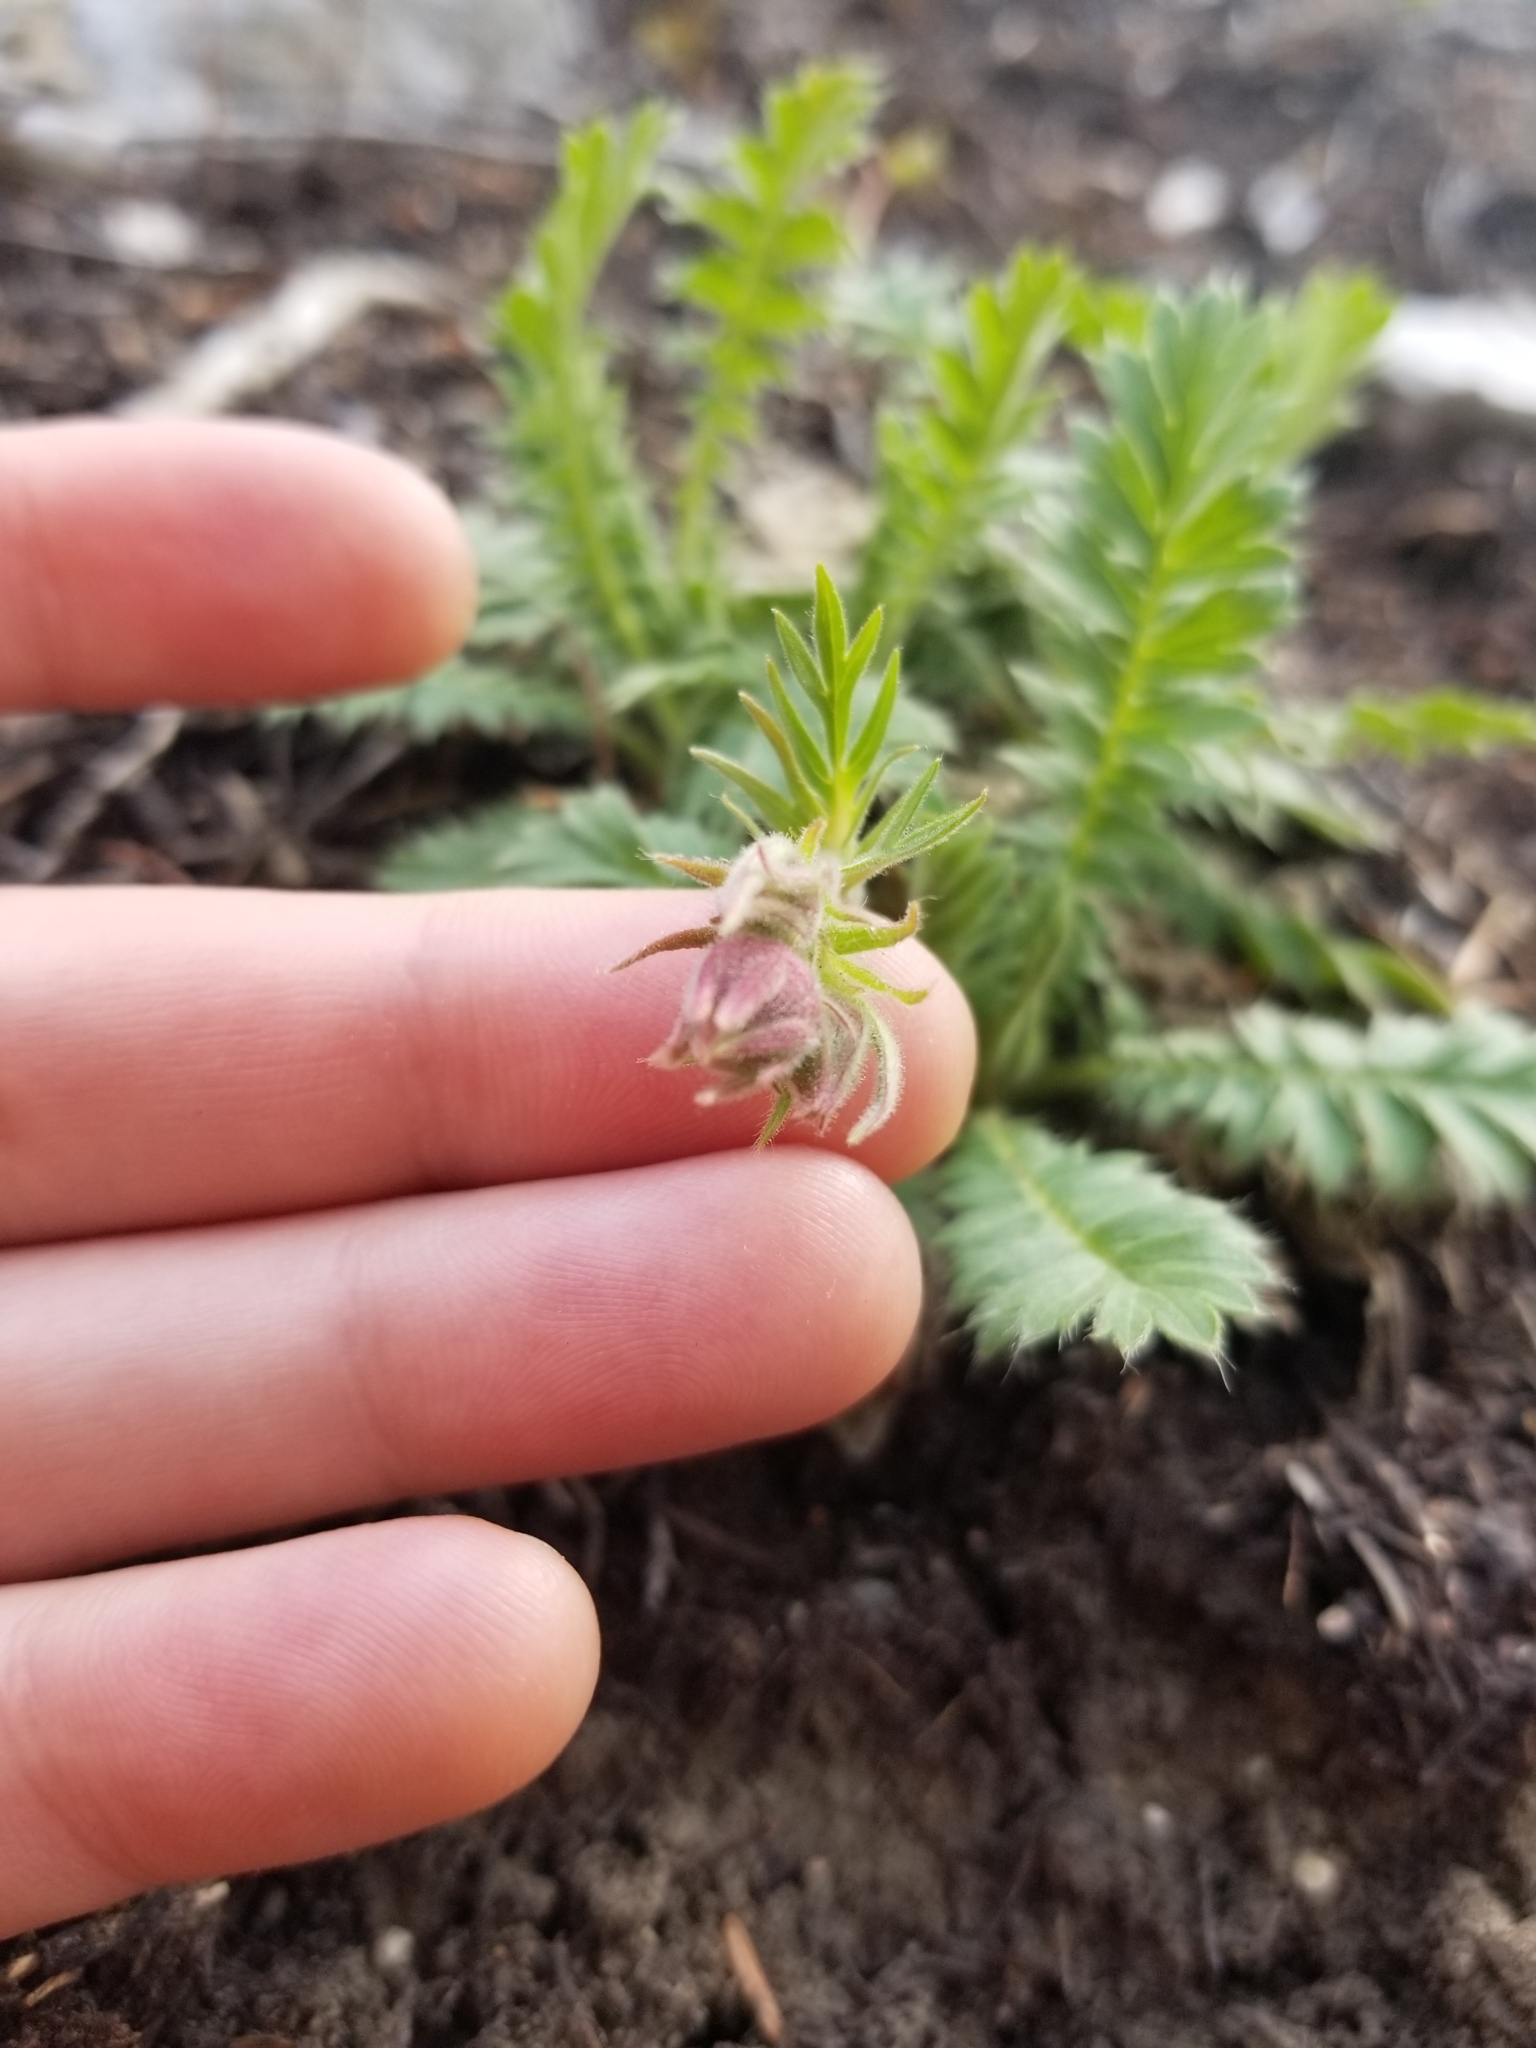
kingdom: Plantae
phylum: Tracheophyta
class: Magnoliopsida
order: Rosales
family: Rosaceae
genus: Geum
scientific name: Geum triflorum
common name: Old man's whiskers
